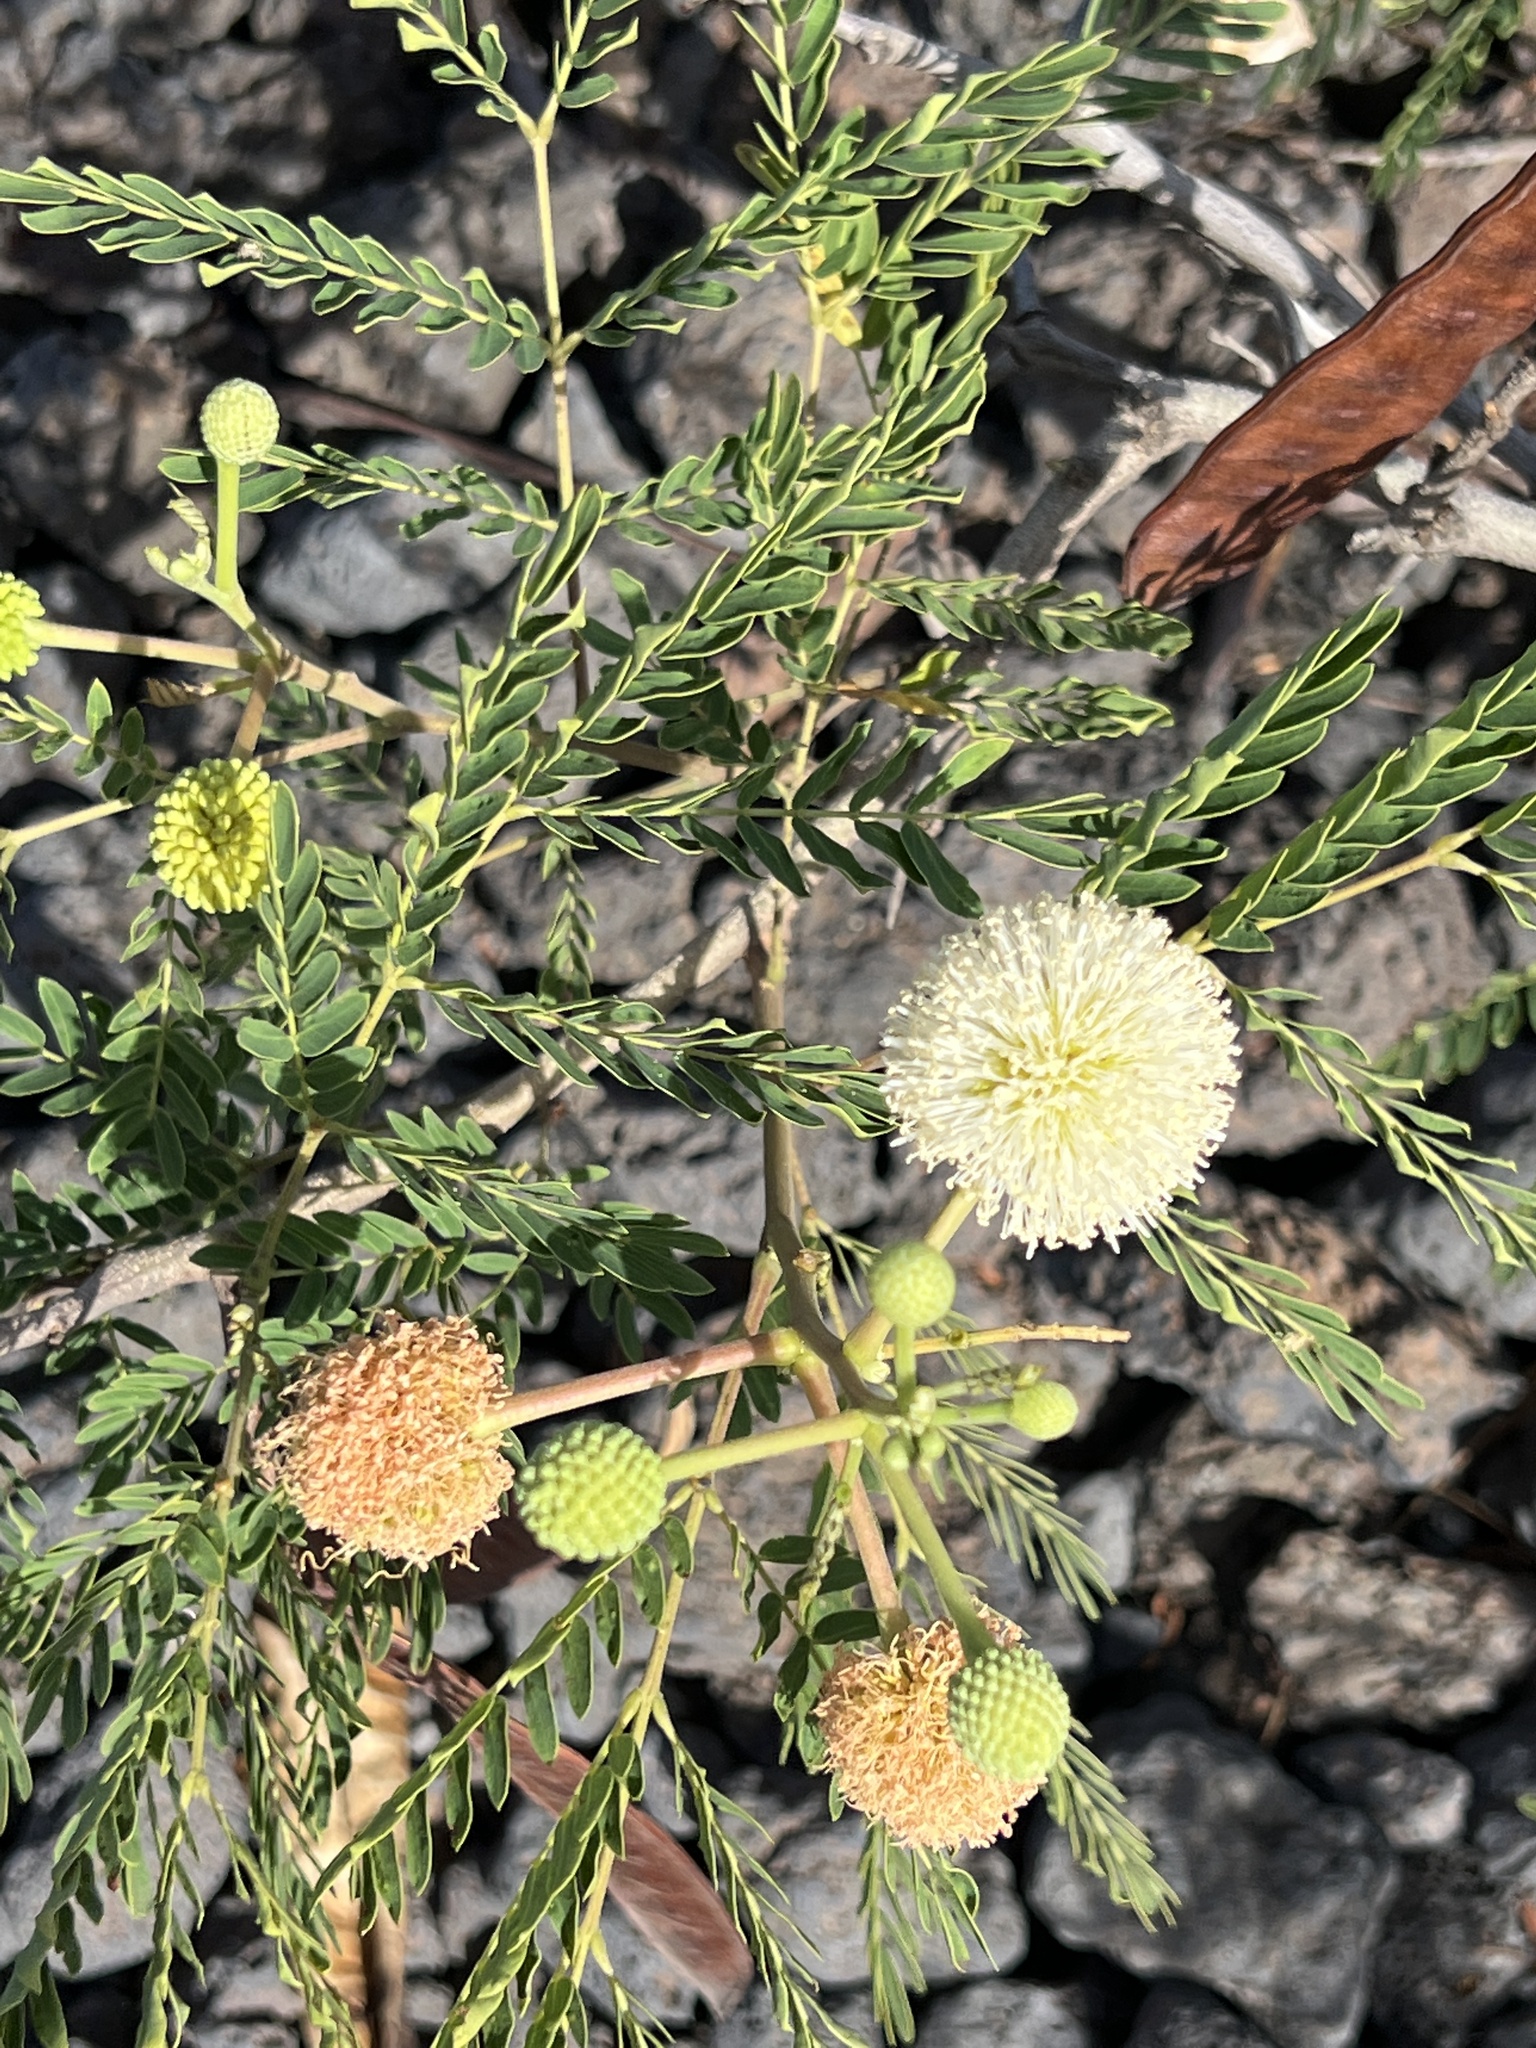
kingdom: Plantae
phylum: Tracheophyta
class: Magnoliopsida
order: Fabales
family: Fabaceae
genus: Leucaena
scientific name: Leucaena leucocephala
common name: White leadtree
